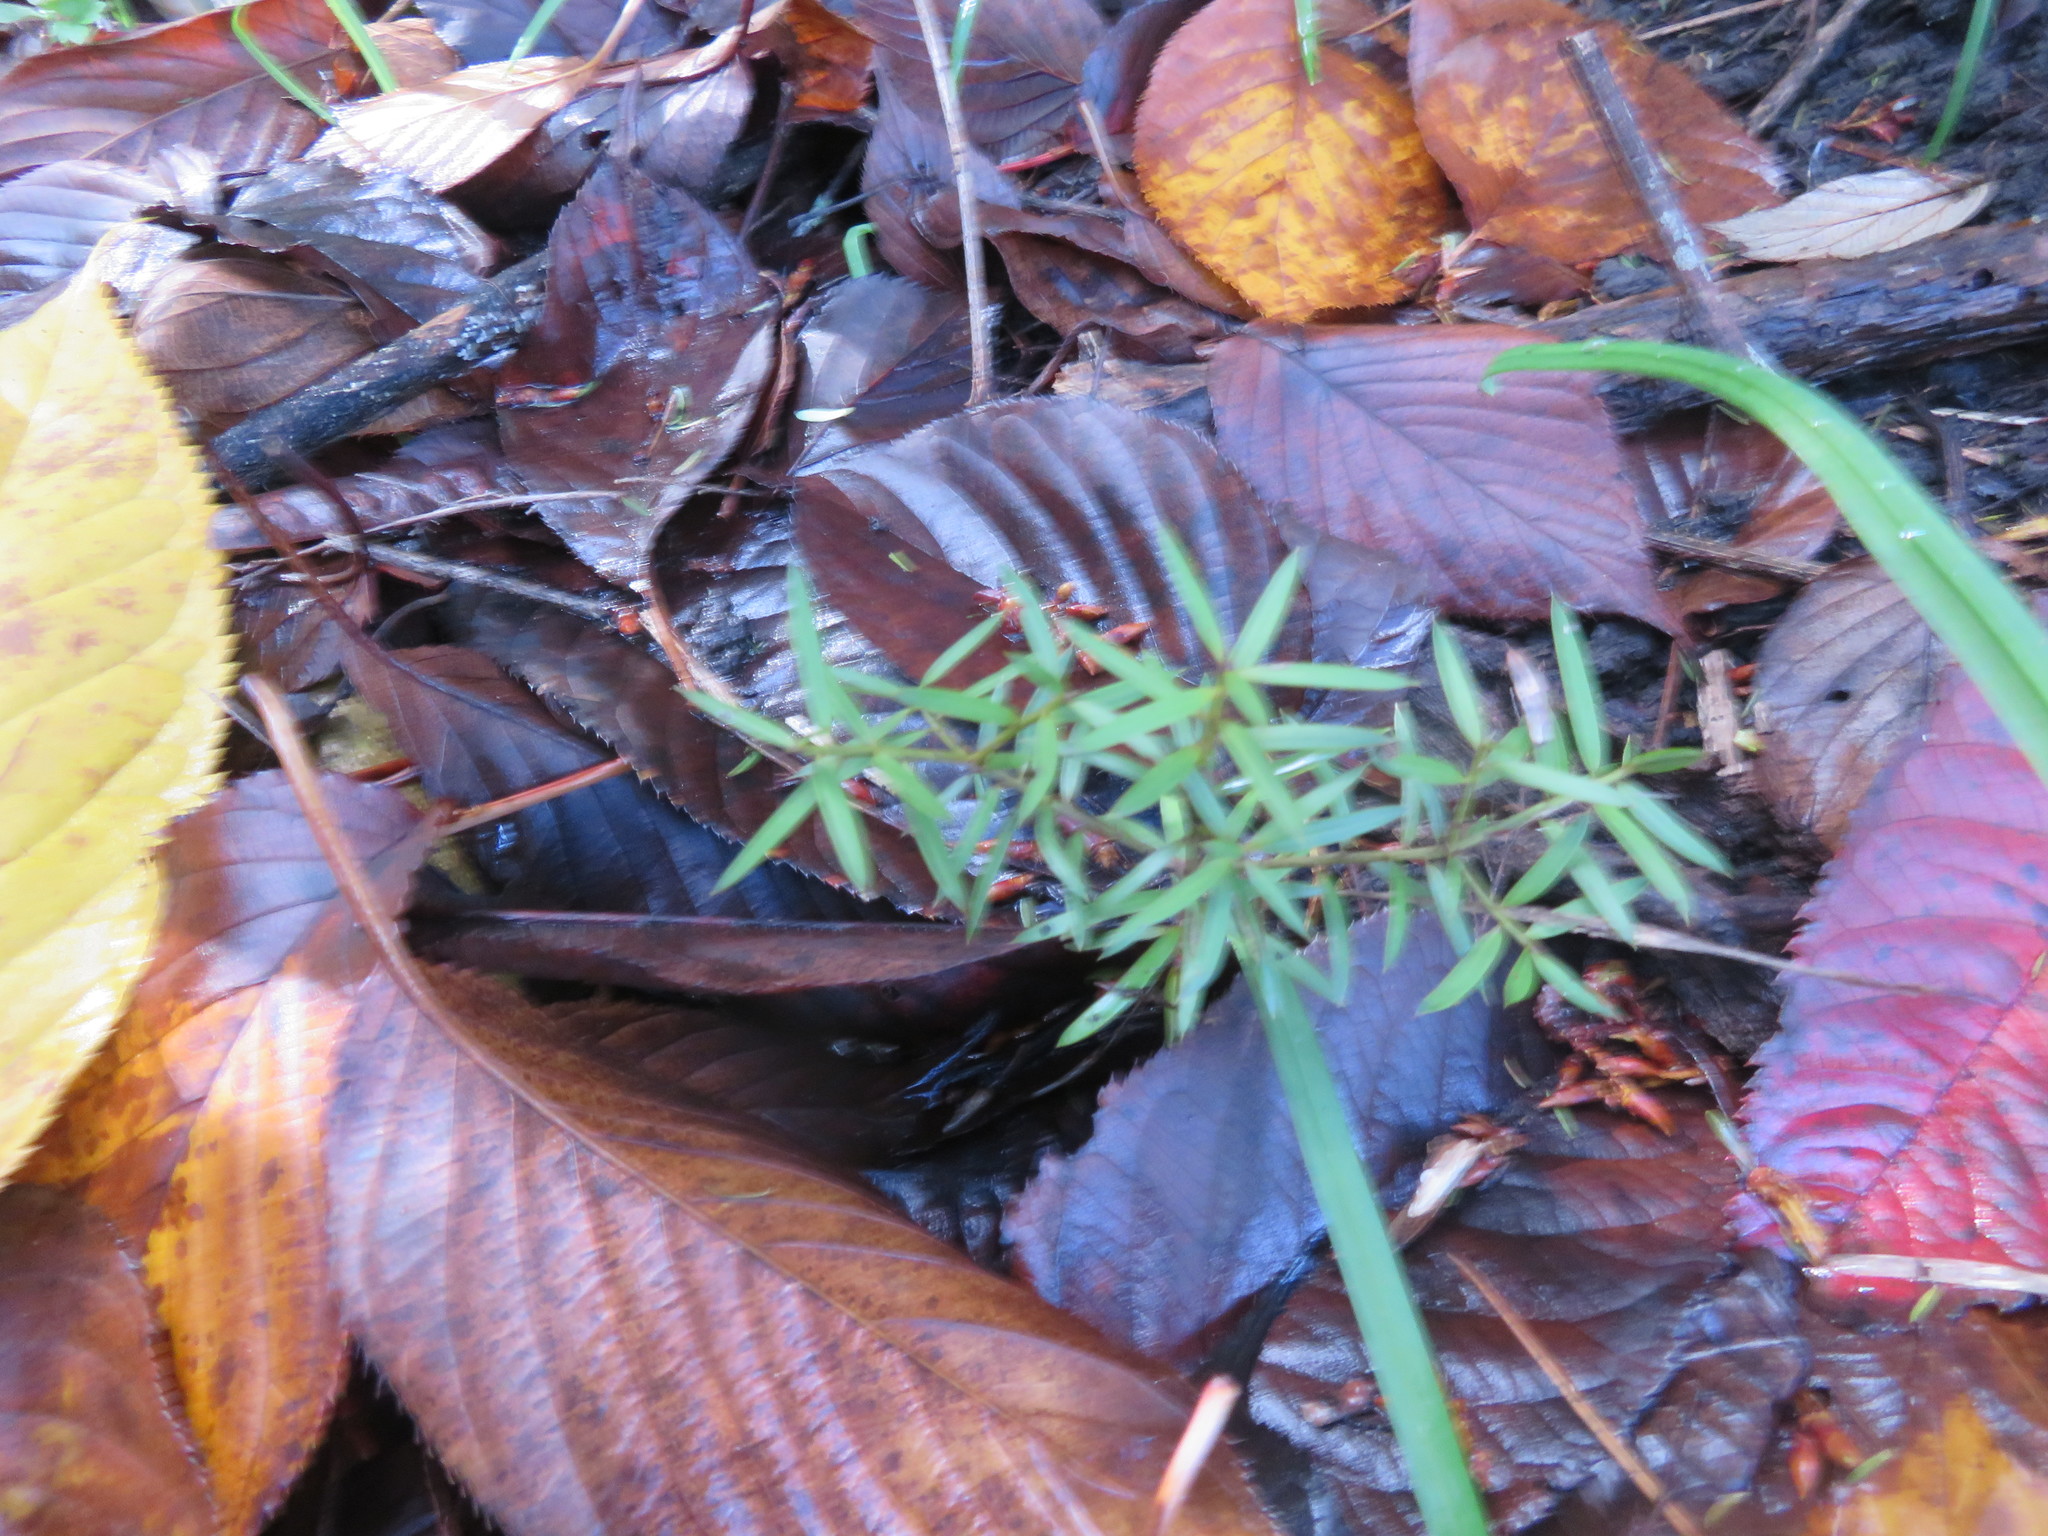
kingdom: Plantae
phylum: Tracheophyta
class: Pinopsida
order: Pinales
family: Podocarpaceae
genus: Podocarpus
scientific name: Podocarpus totara
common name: Totara
